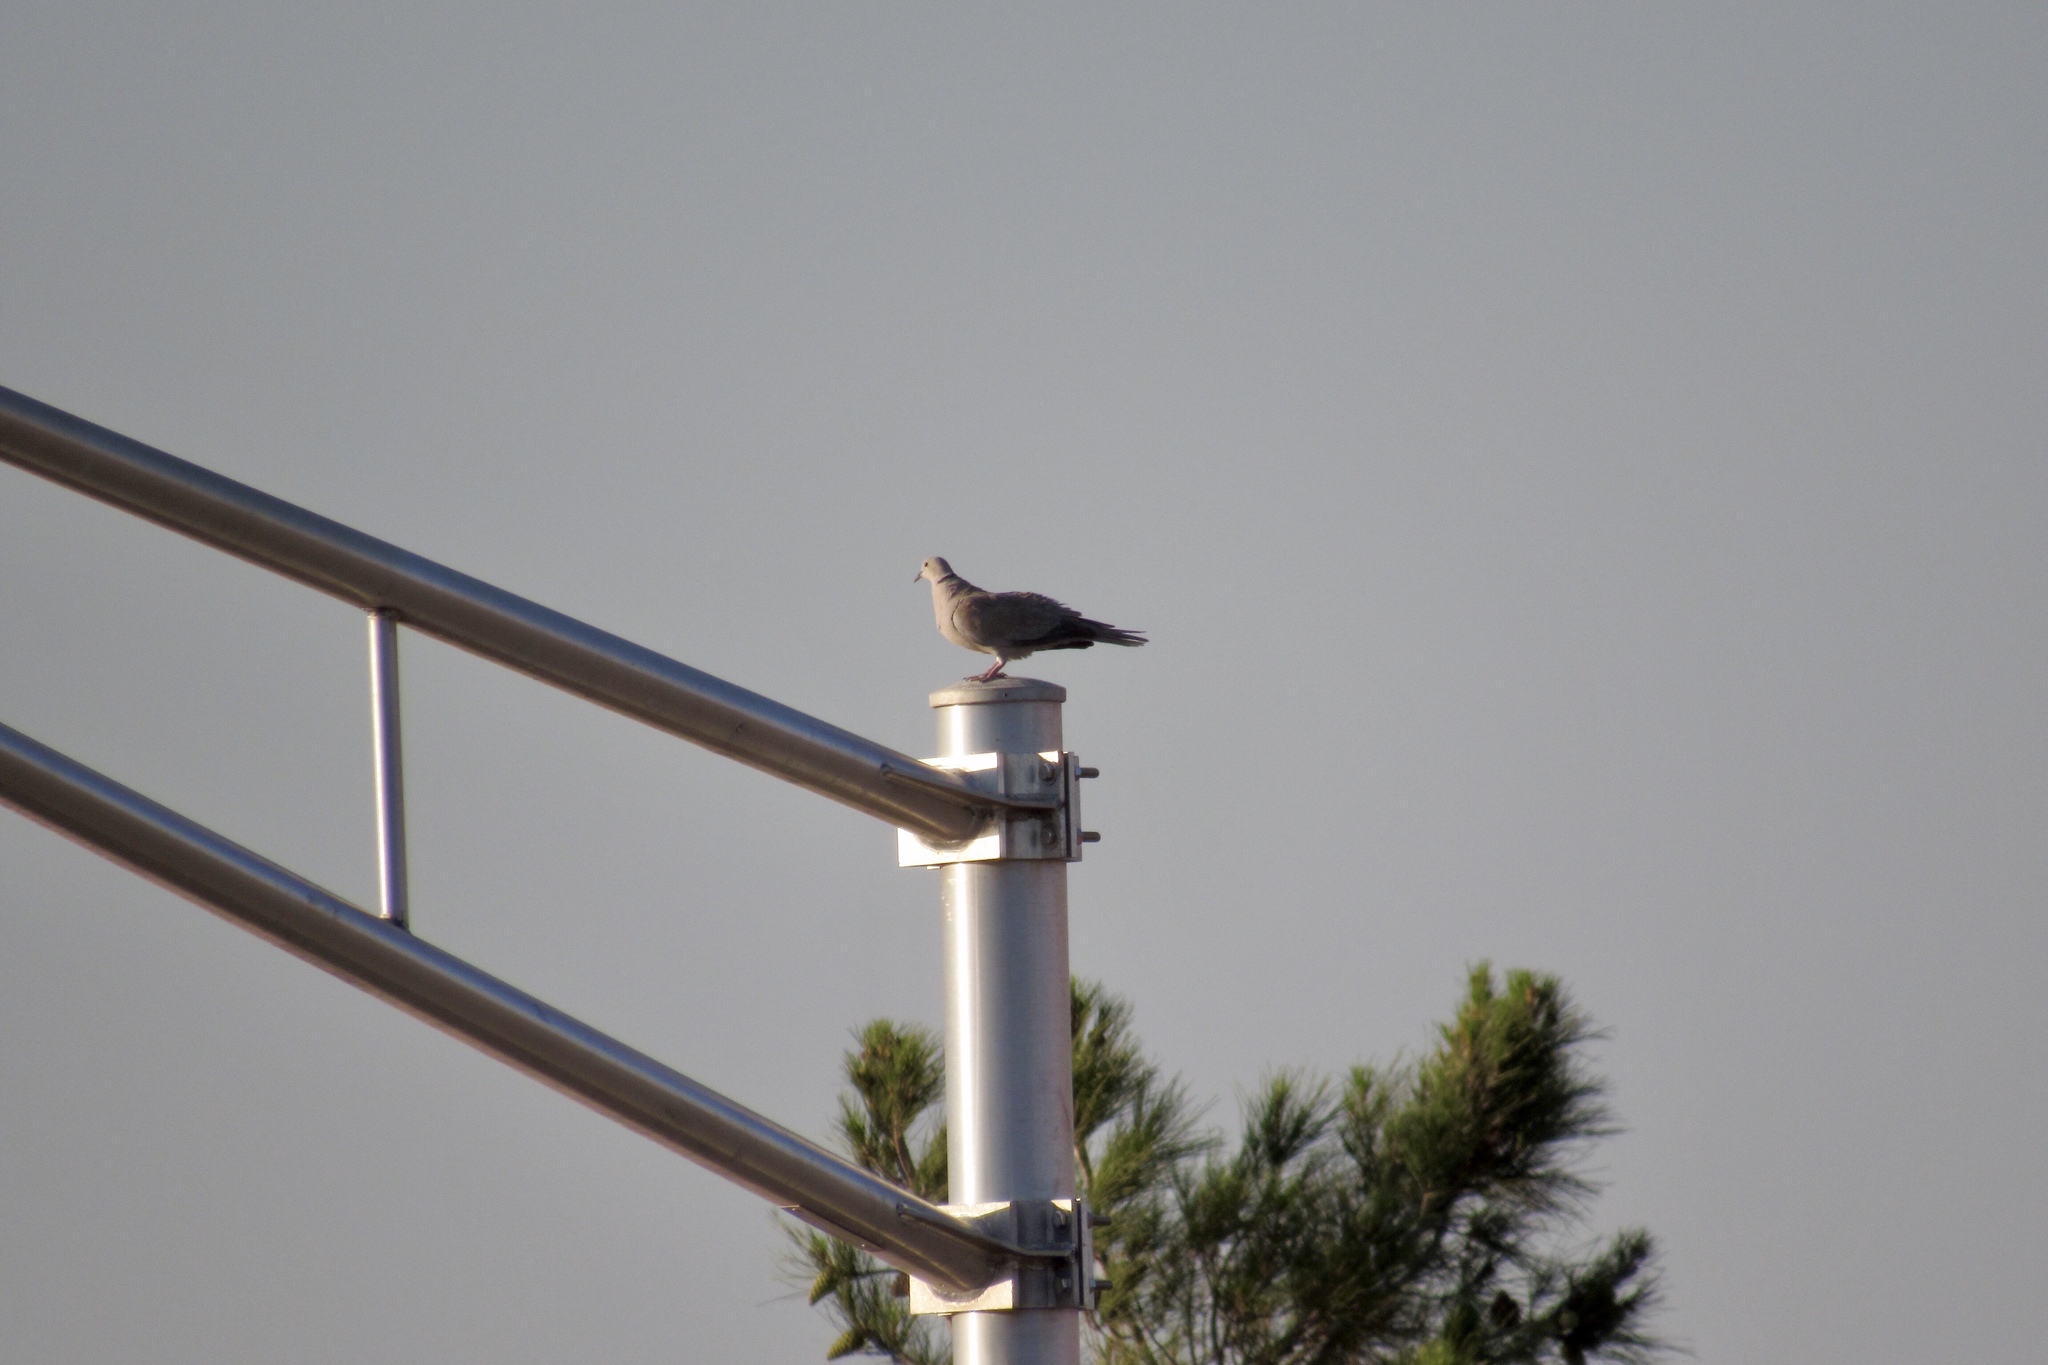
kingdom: Animalia
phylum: Chordata
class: Aves
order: Columbiformes
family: Columbidae
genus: Streptopelia
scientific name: Streptopelia decaocto
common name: Eurasian collared dove
